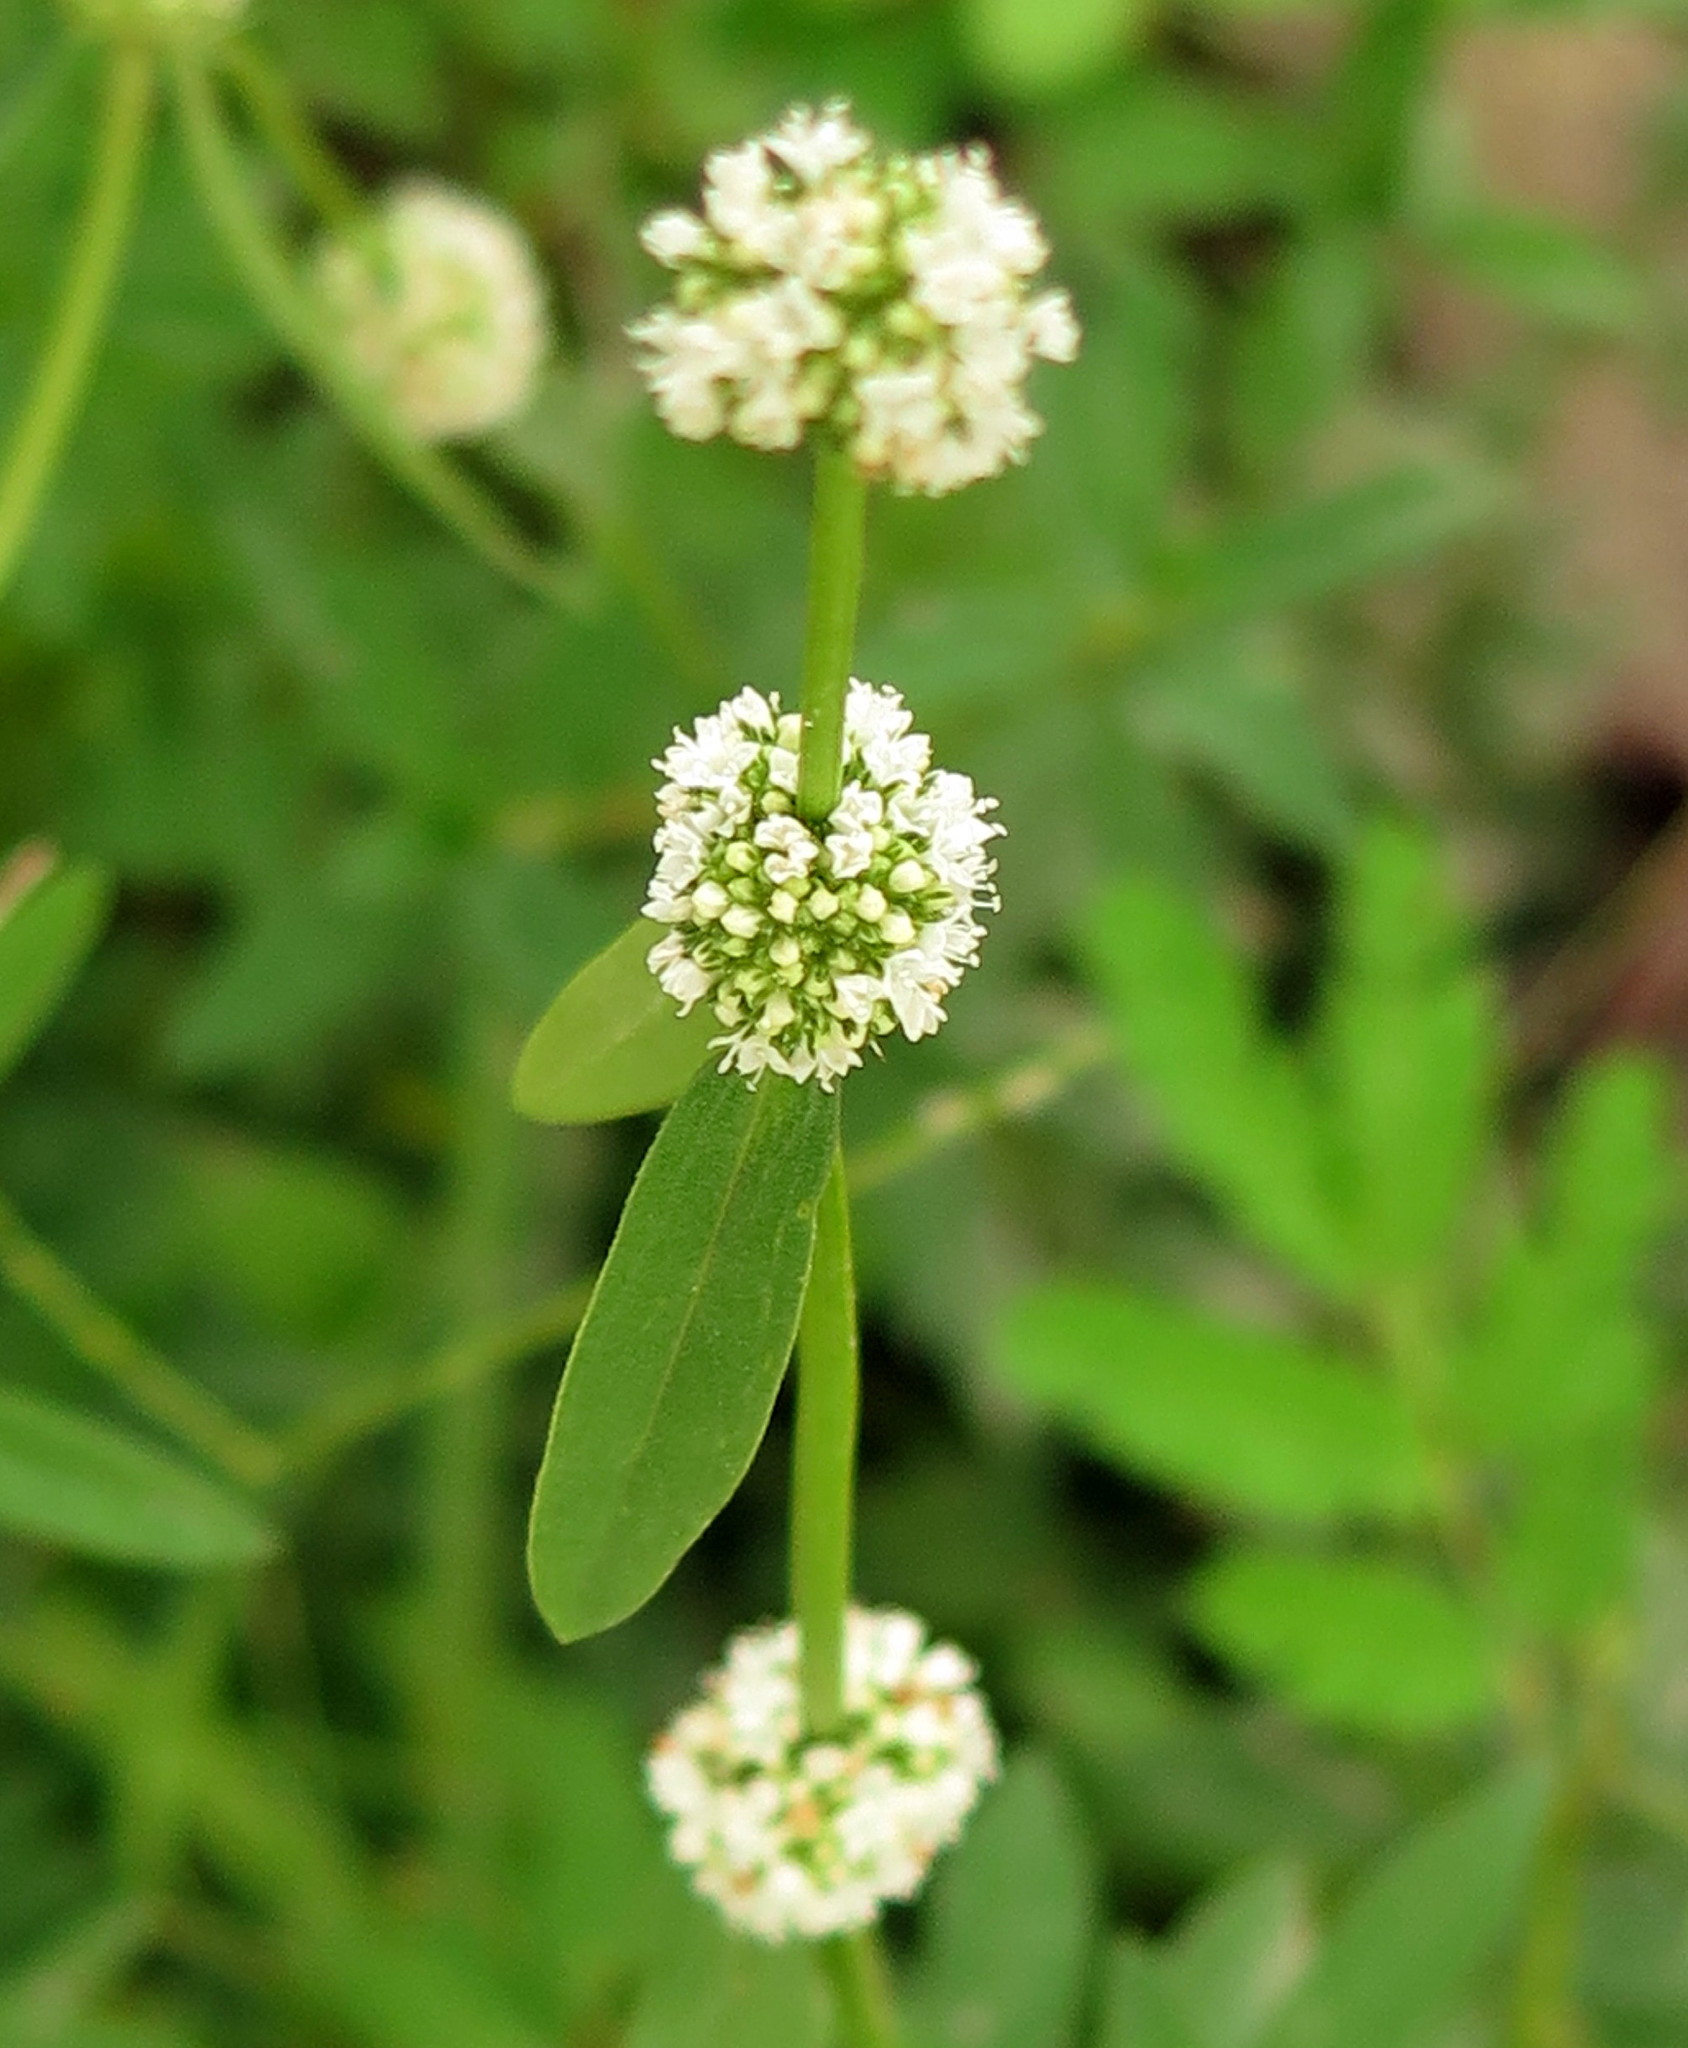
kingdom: Plantae
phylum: Tracheophyta
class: Magnoliopsida
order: Gentianales
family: Rubiaceae
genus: Spermacoce
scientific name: Spermacoce verticillata
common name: Shrubby false buttonweed
